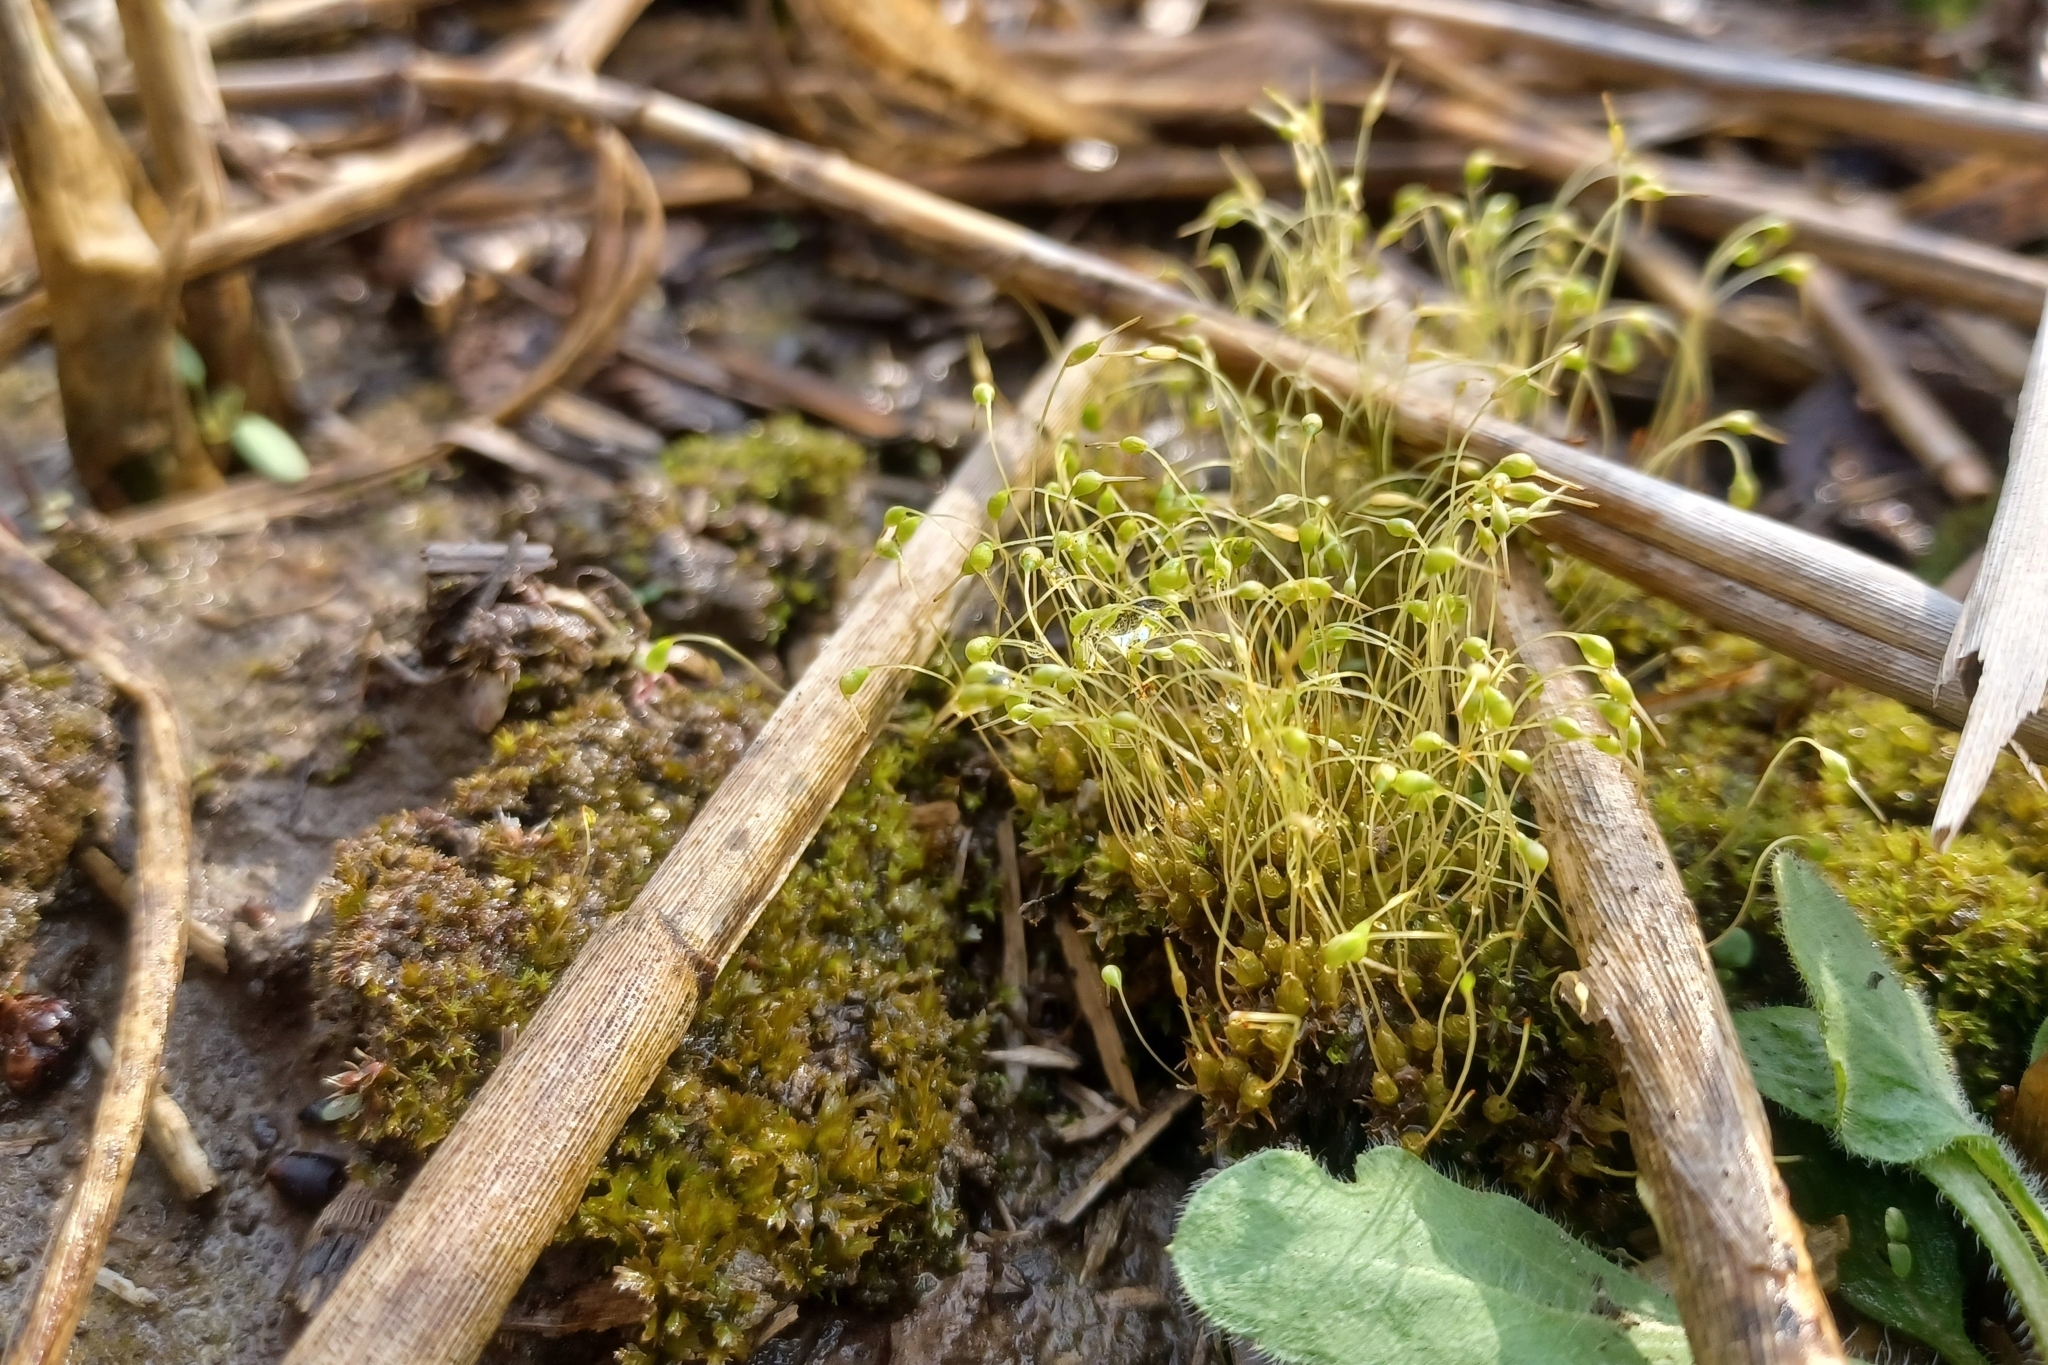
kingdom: Plantae
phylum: Bryophyta
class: Bryopsida
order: Funariales
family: Funariaceae
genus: Funaria
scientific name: Funaria hygrometrica
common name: Common cord moss
